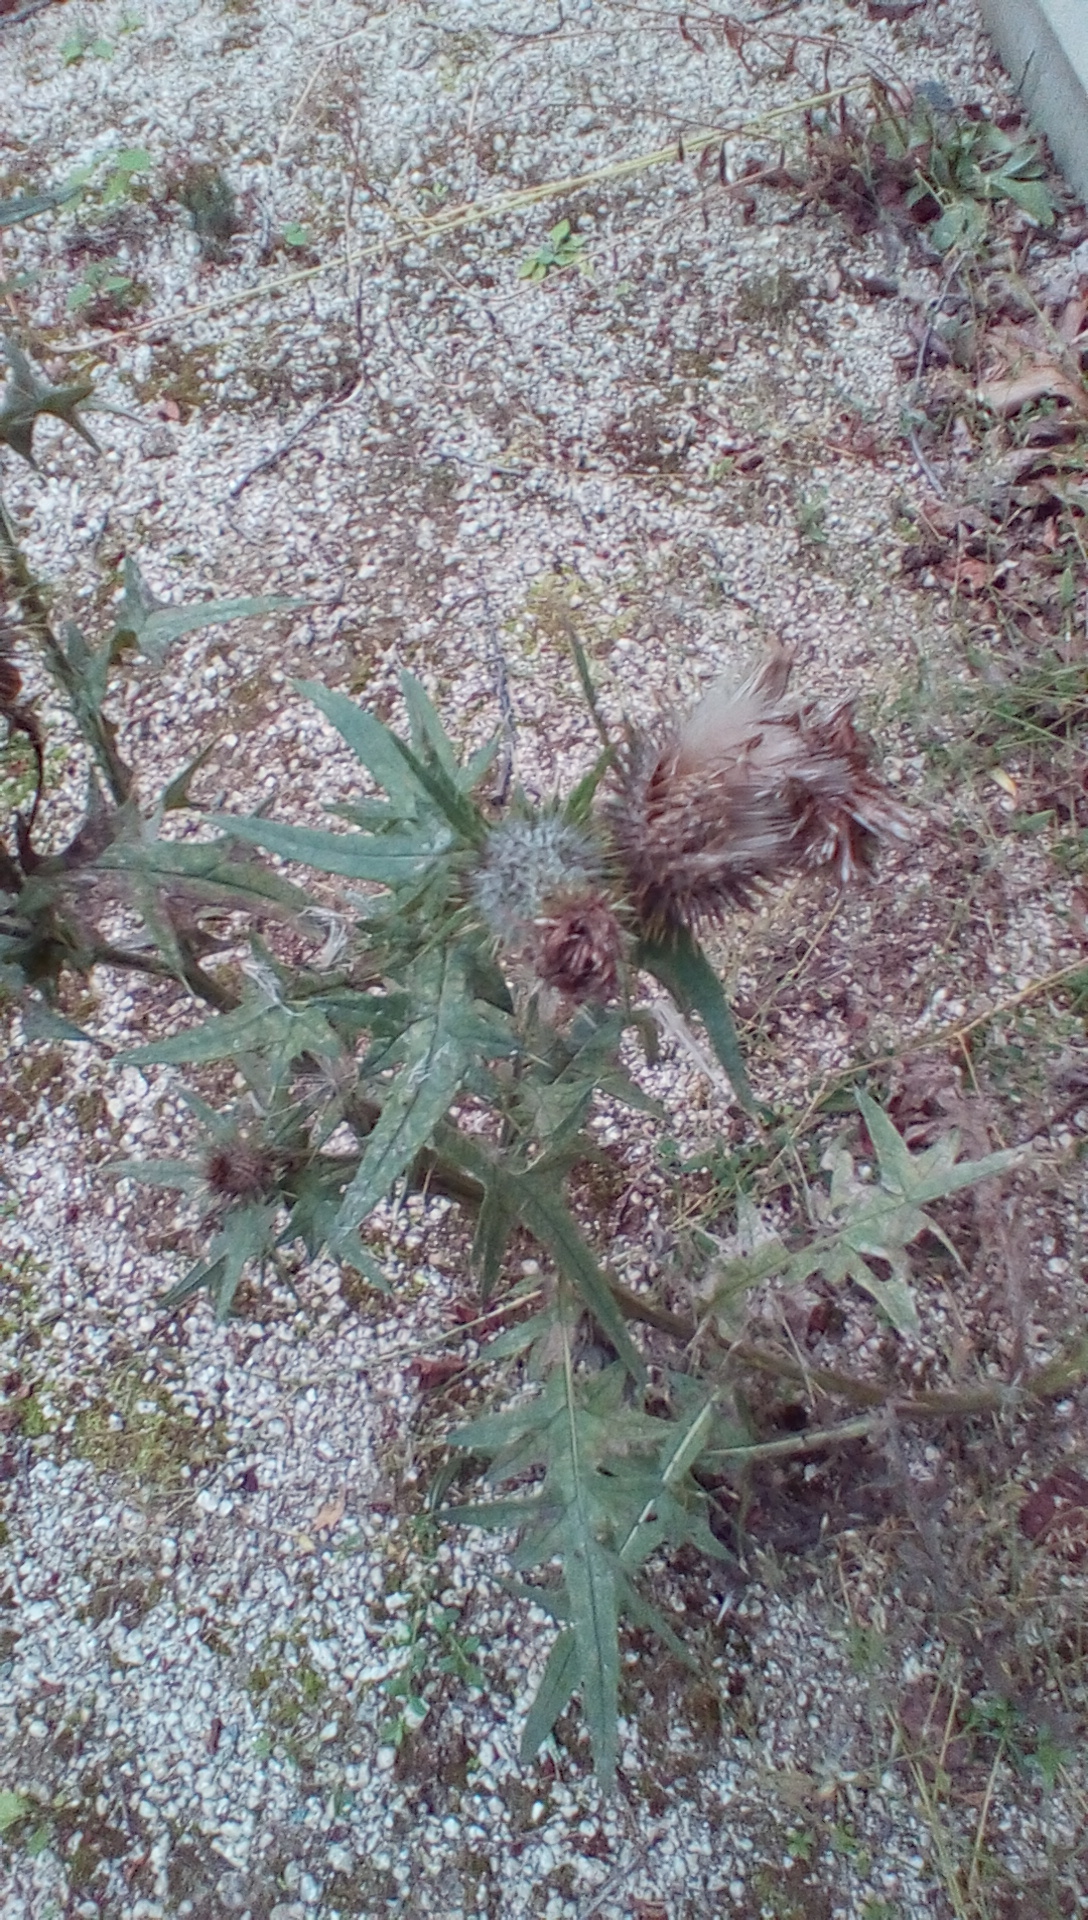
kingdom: Plantae
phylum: Tracheophyta
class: Magnoliopsida
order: Asterales
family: Asteraceae
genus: Cirsium
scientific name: Cirsium vulgare
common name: Bull thistle
